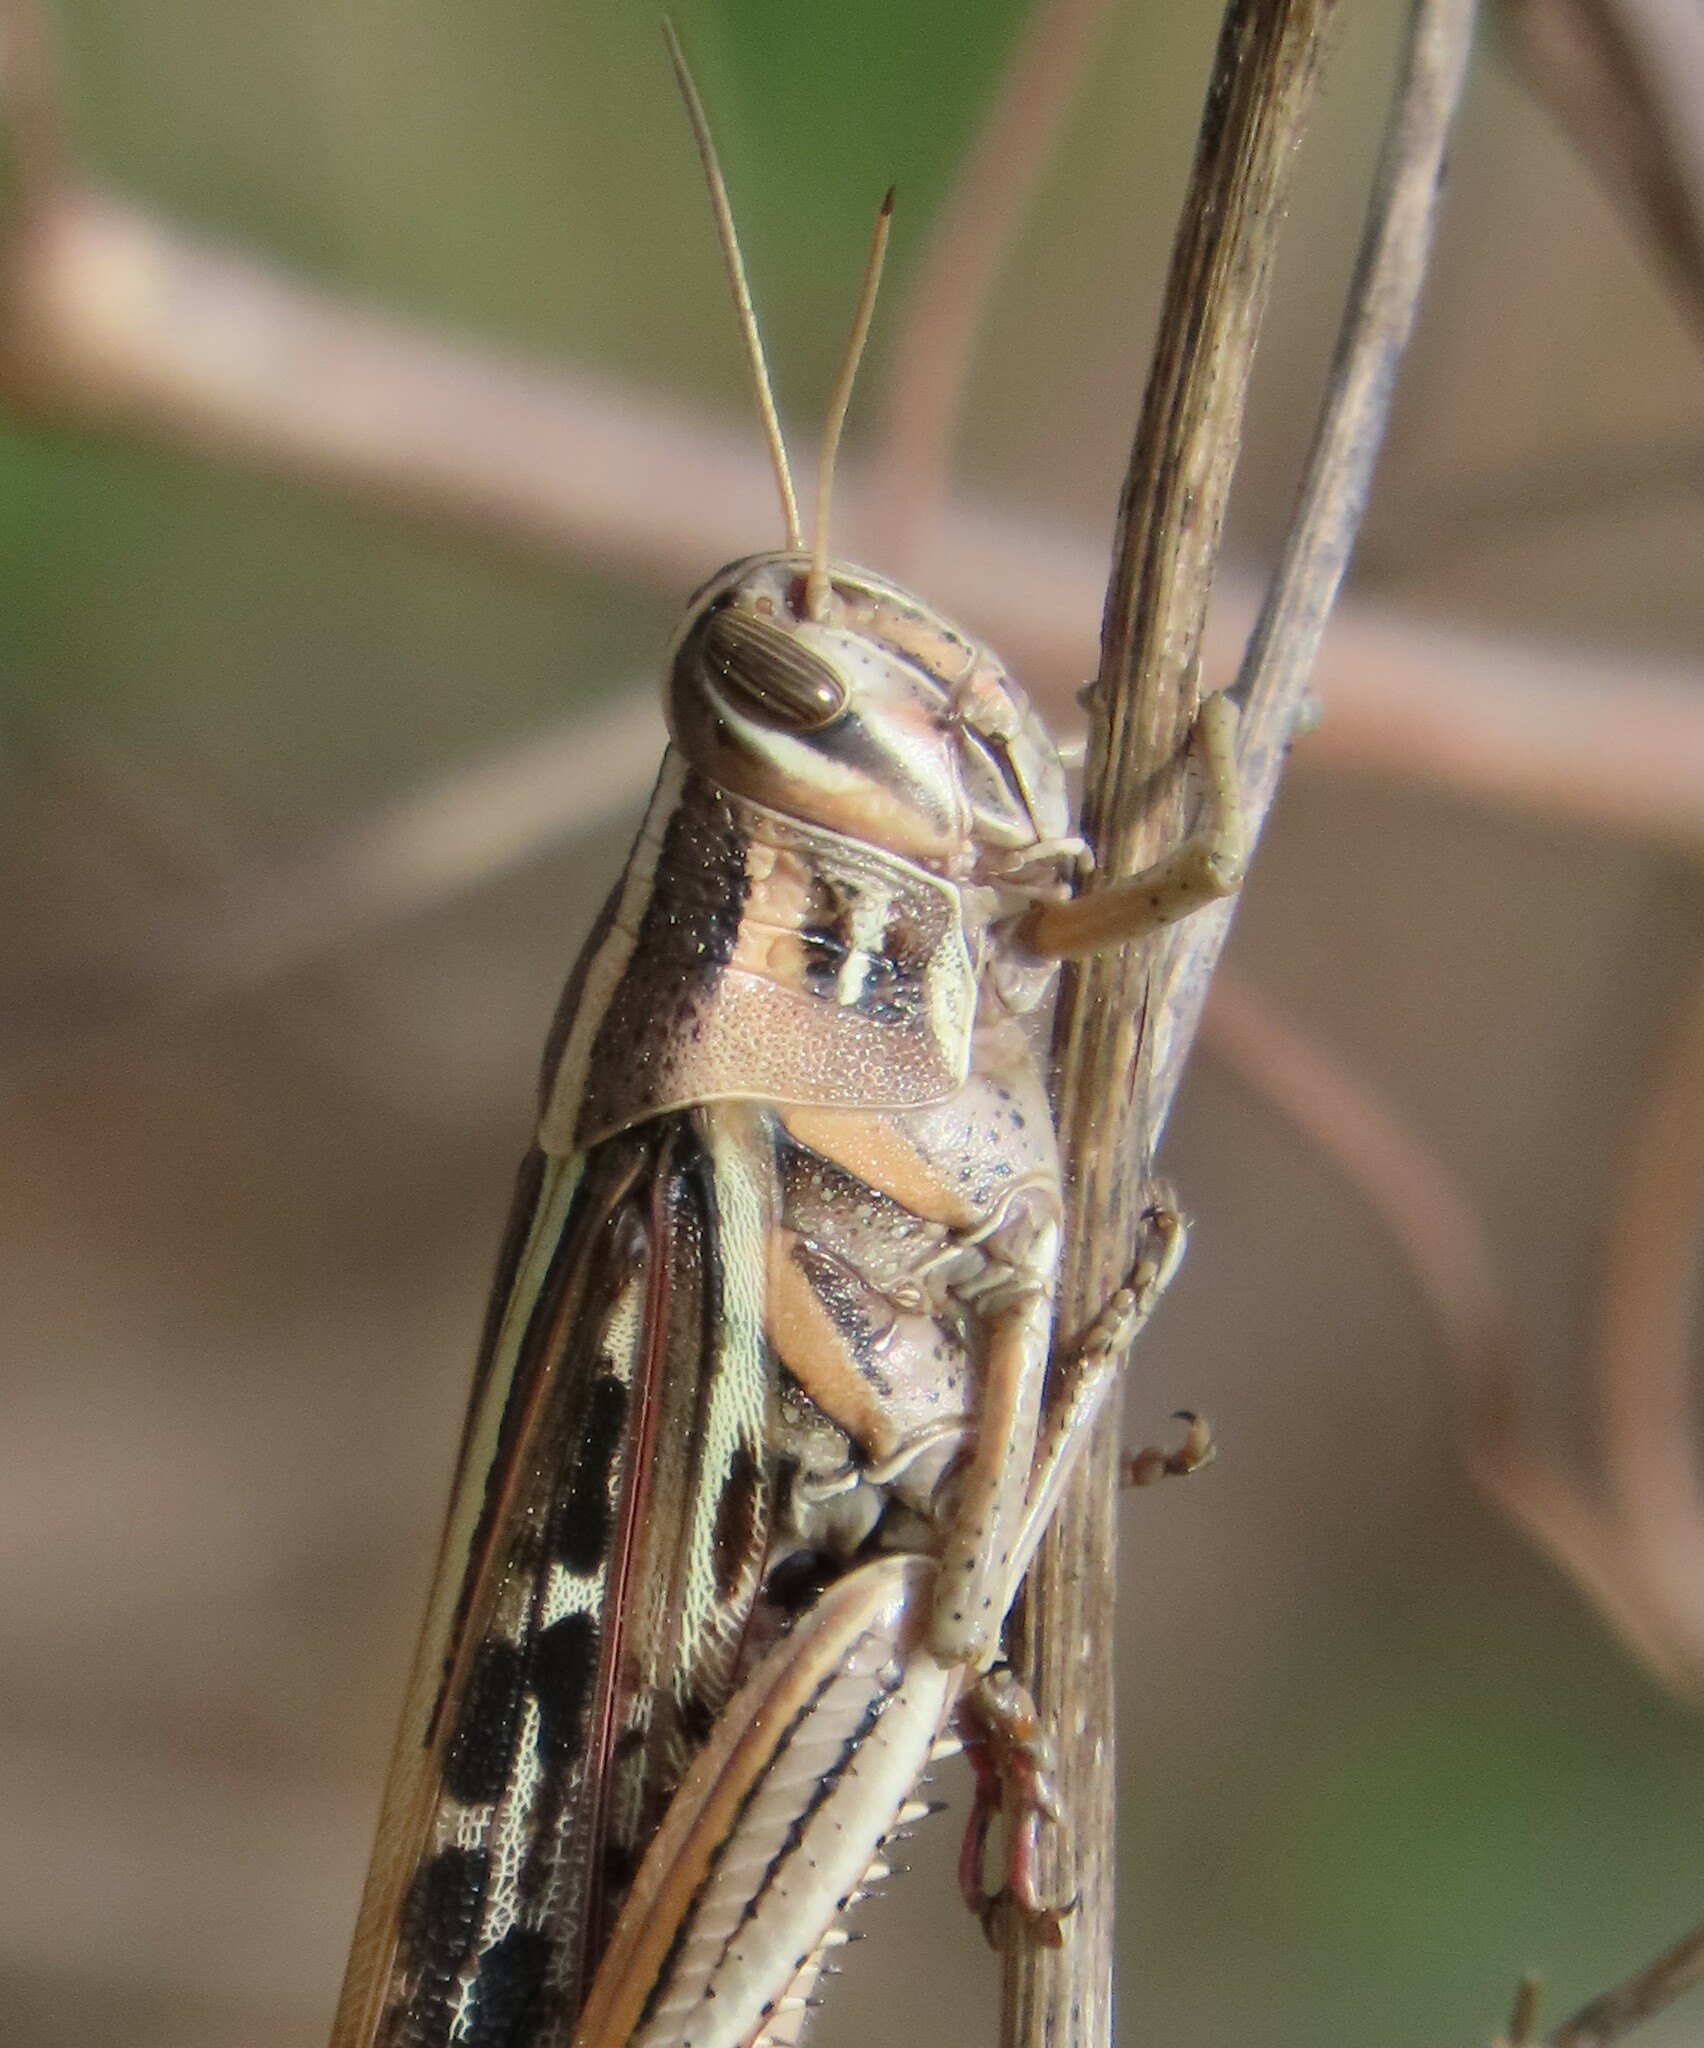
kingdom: Animalia
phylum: Arthropoda
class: Insecta
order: Orthoptera
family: Acrididae
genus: Schistocerca
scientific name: Schistocerca americana
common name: American bird locust
